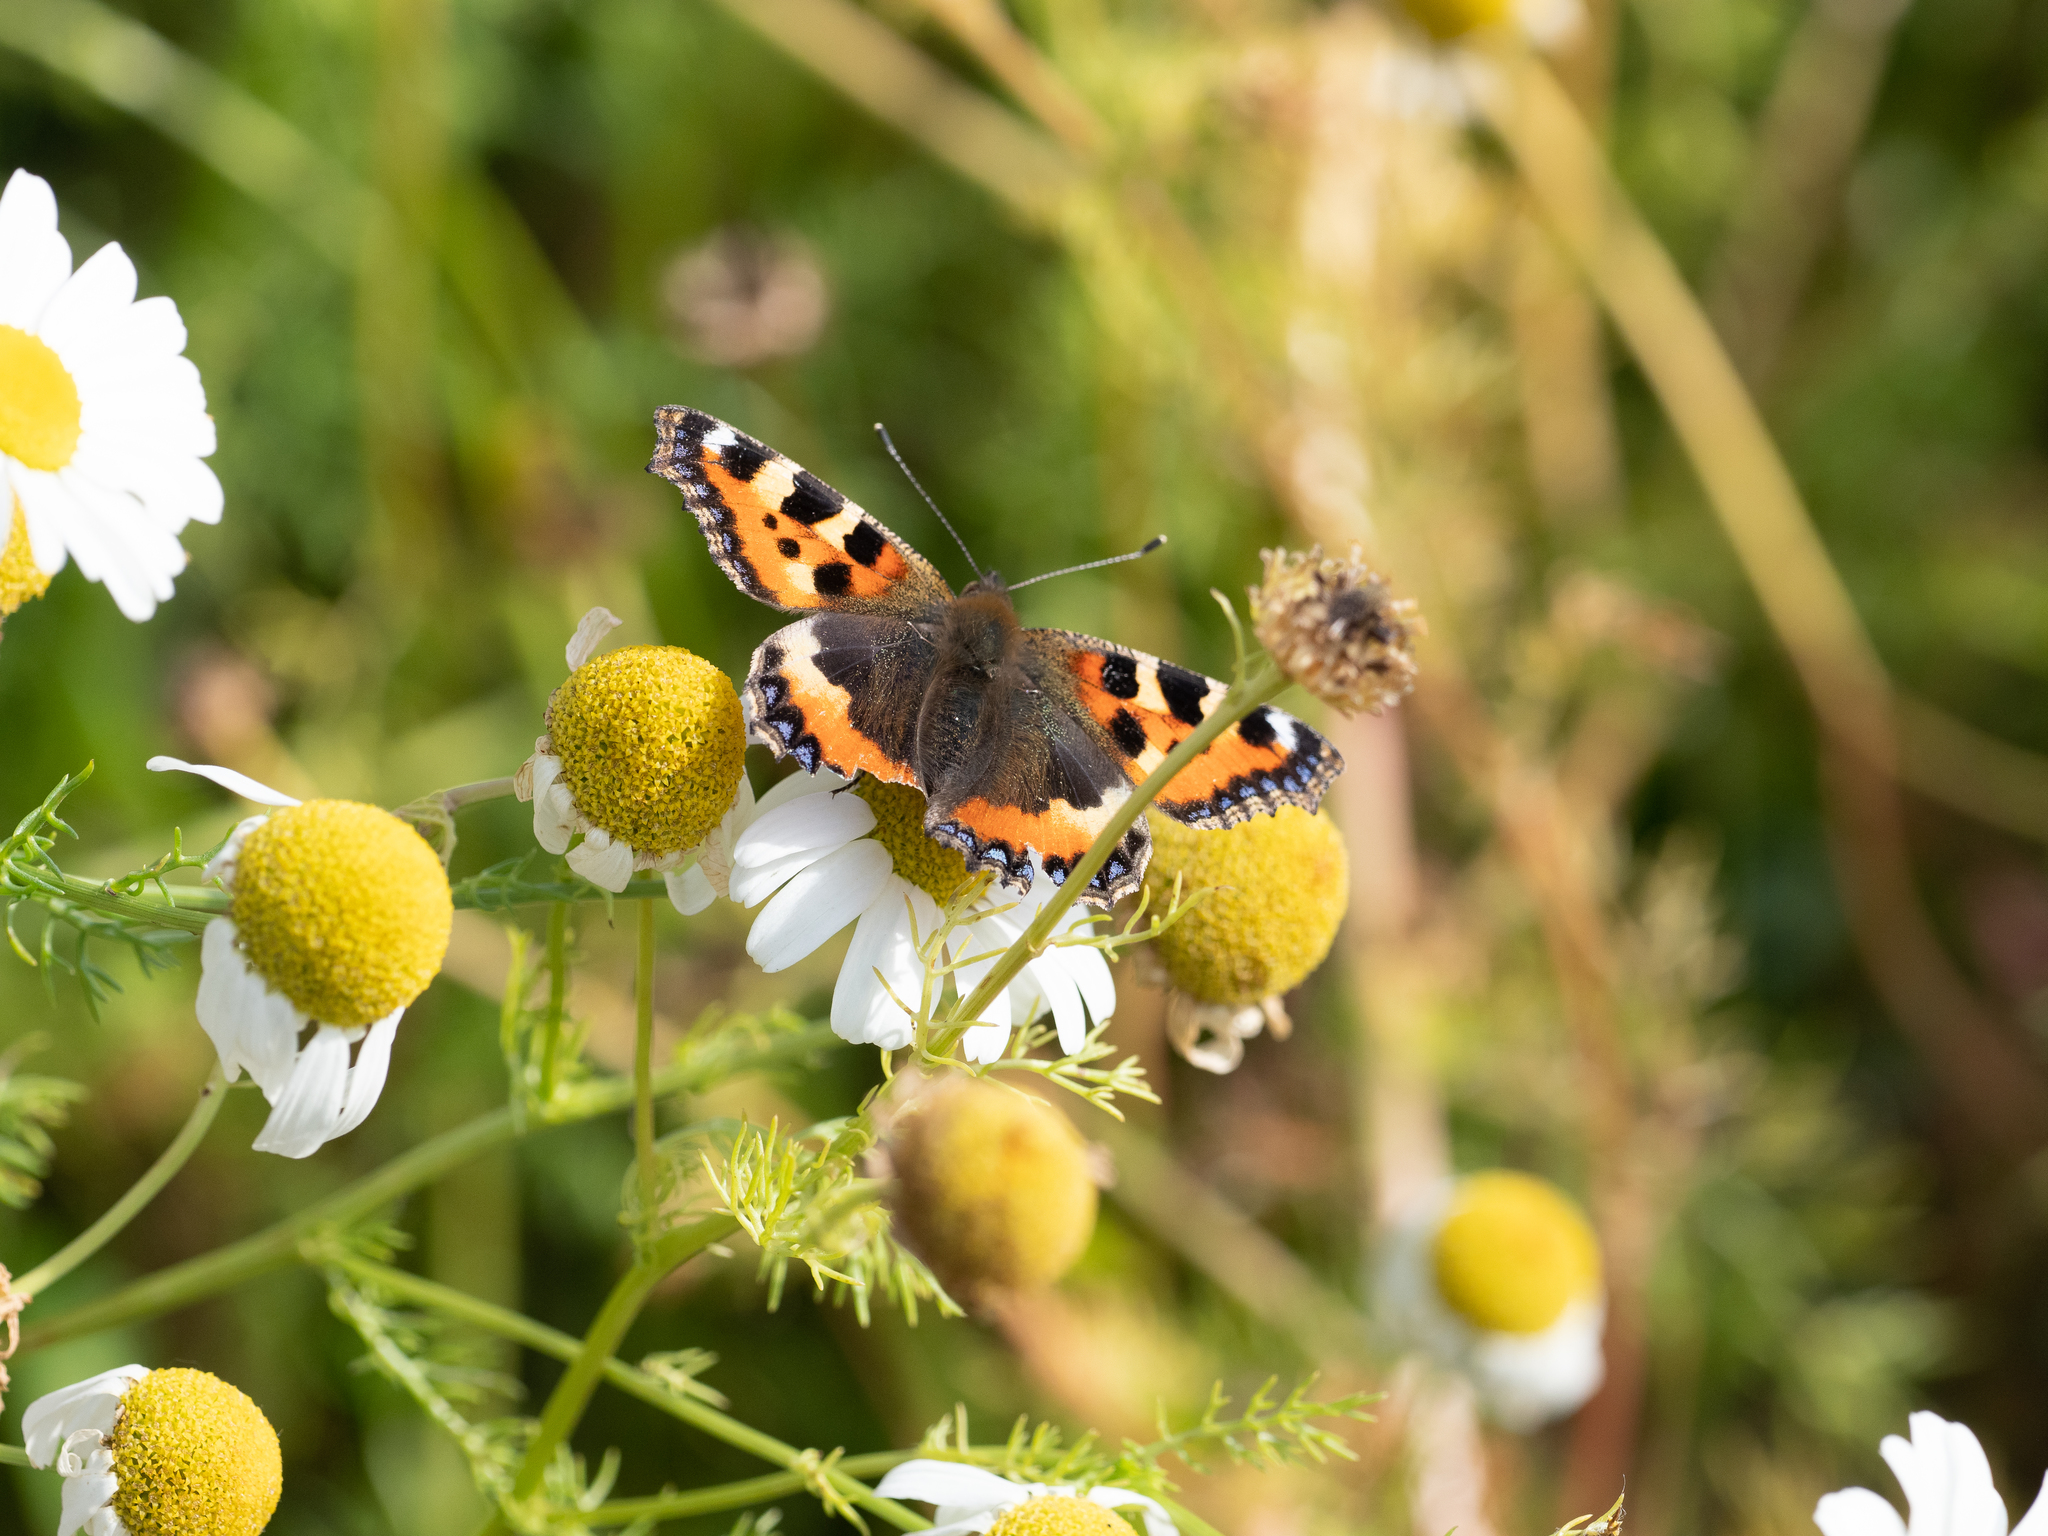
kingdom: Animalia
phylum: Arthropoda
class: Insecta
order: Lepidoptera
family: Nymphalidae
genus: Aglais
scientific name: Aglais urticae
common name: Small tortoiseshell
